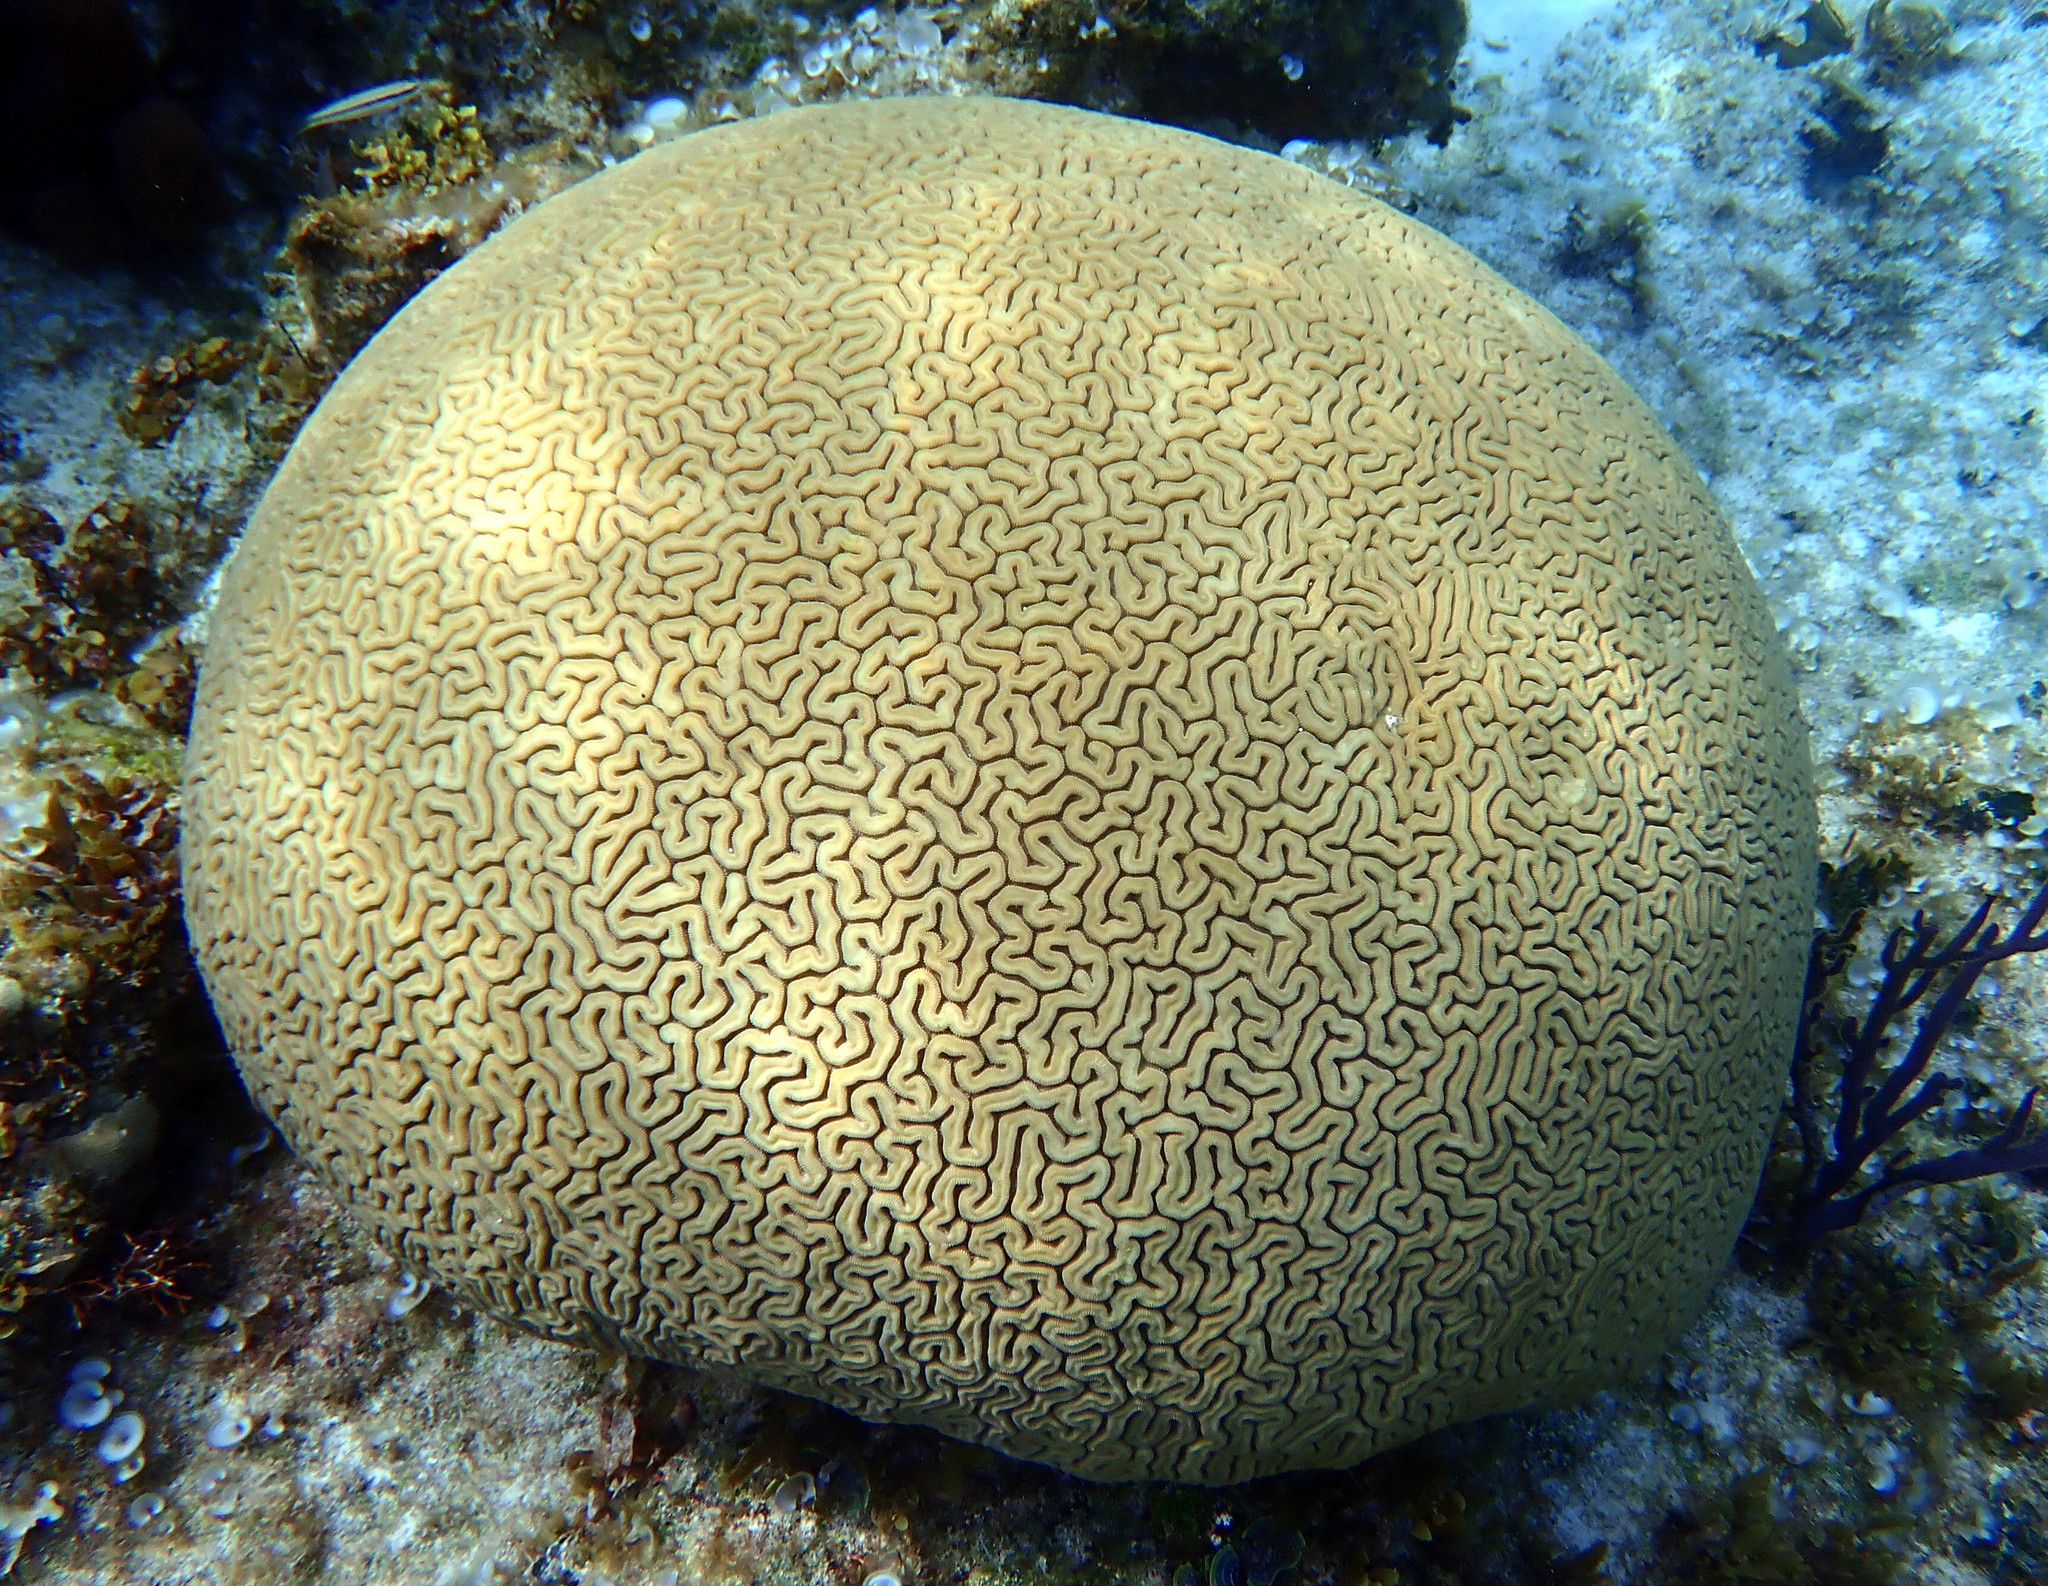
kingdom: Animalia
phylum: Cnidaria
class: Anthozoa
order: Scleractinia
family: Faviidae
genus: Diploria
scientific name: Diploria labyrinthiformis
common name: Grooved brain coral
